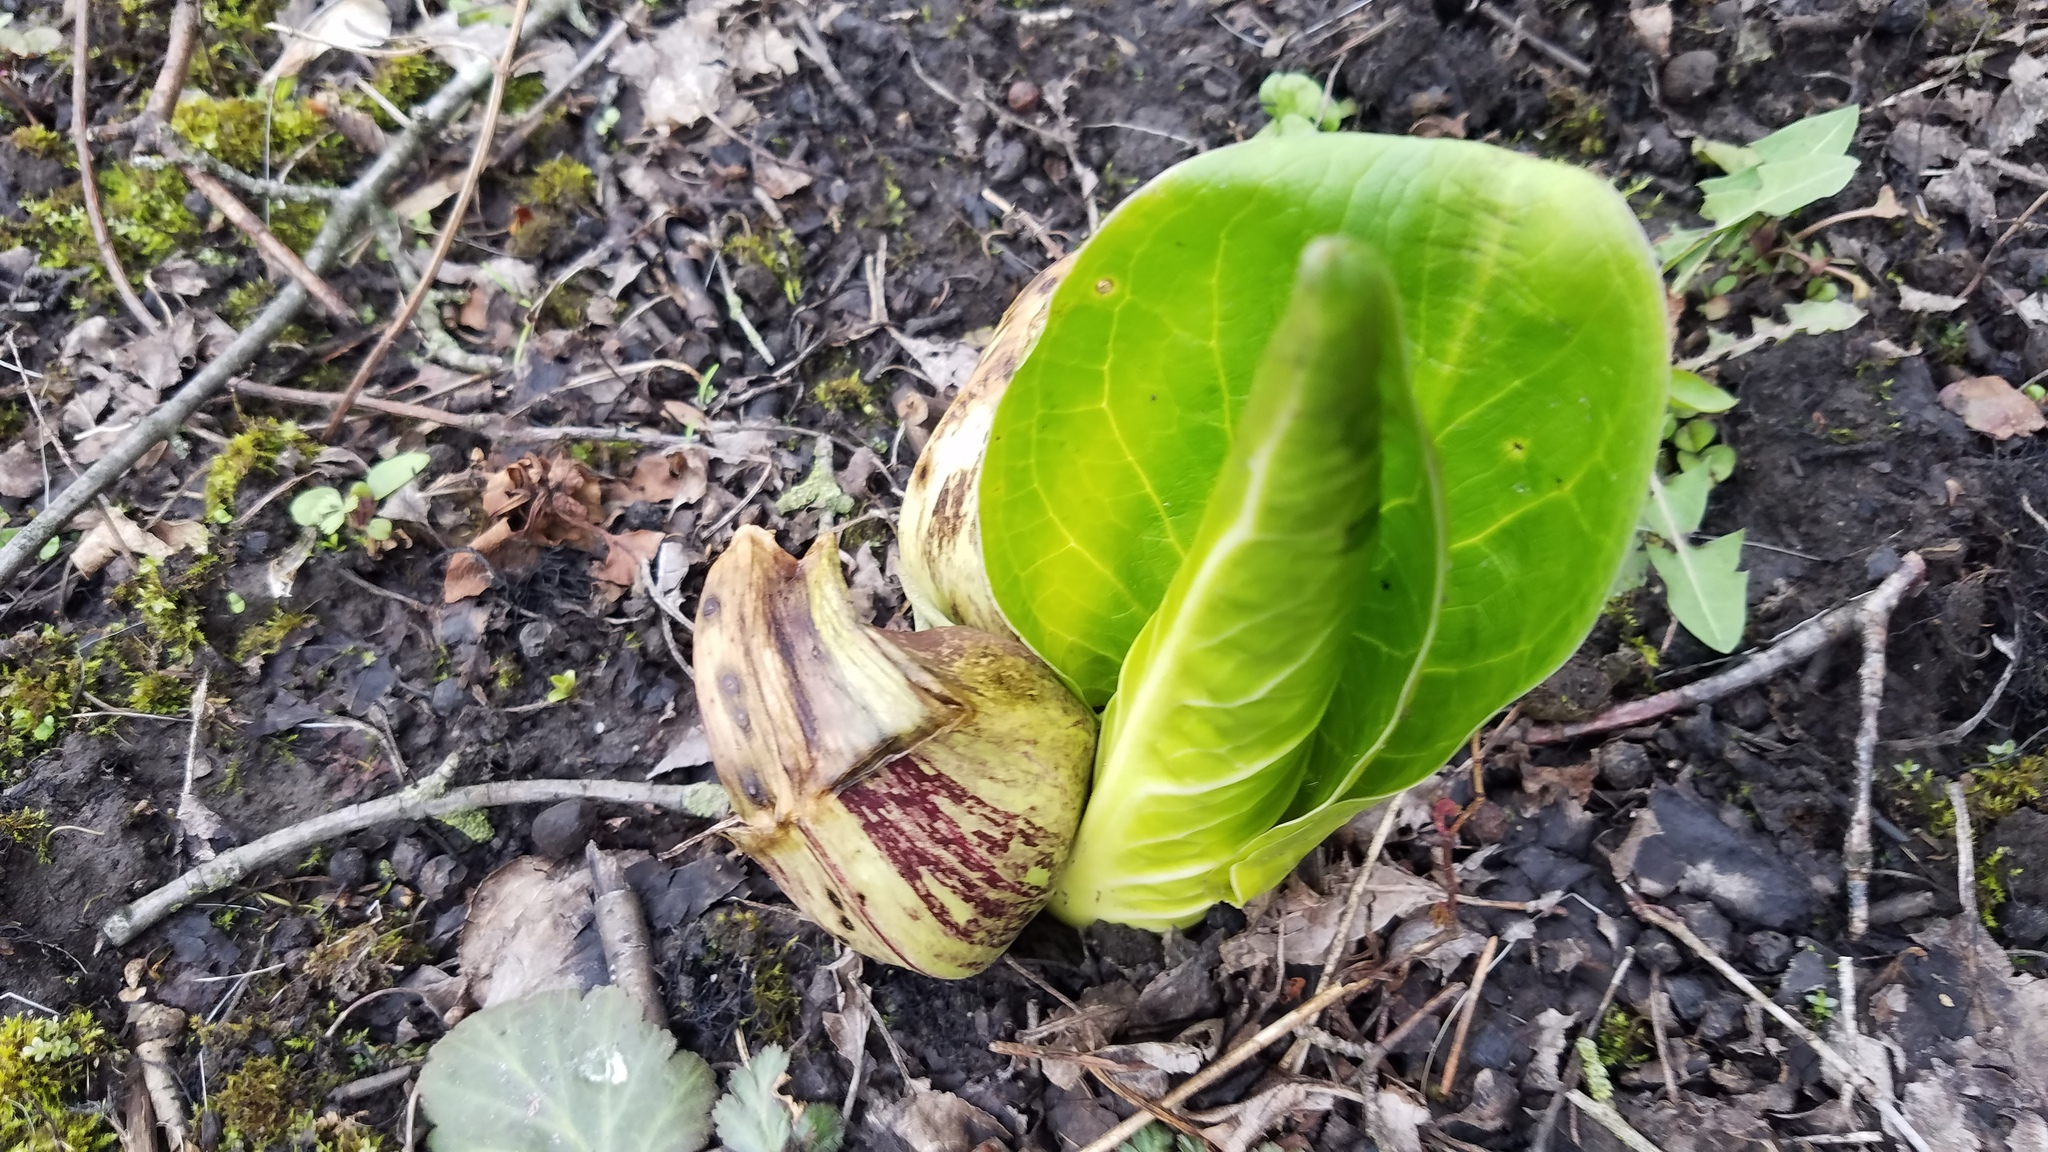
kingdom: Plantae
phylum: Tracheophyta
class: Liliopsida
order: Alismatales
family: Araceae
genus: Symplocarpus
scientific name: Symplocarpus foetidus
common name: Eastern skunk cabbage
